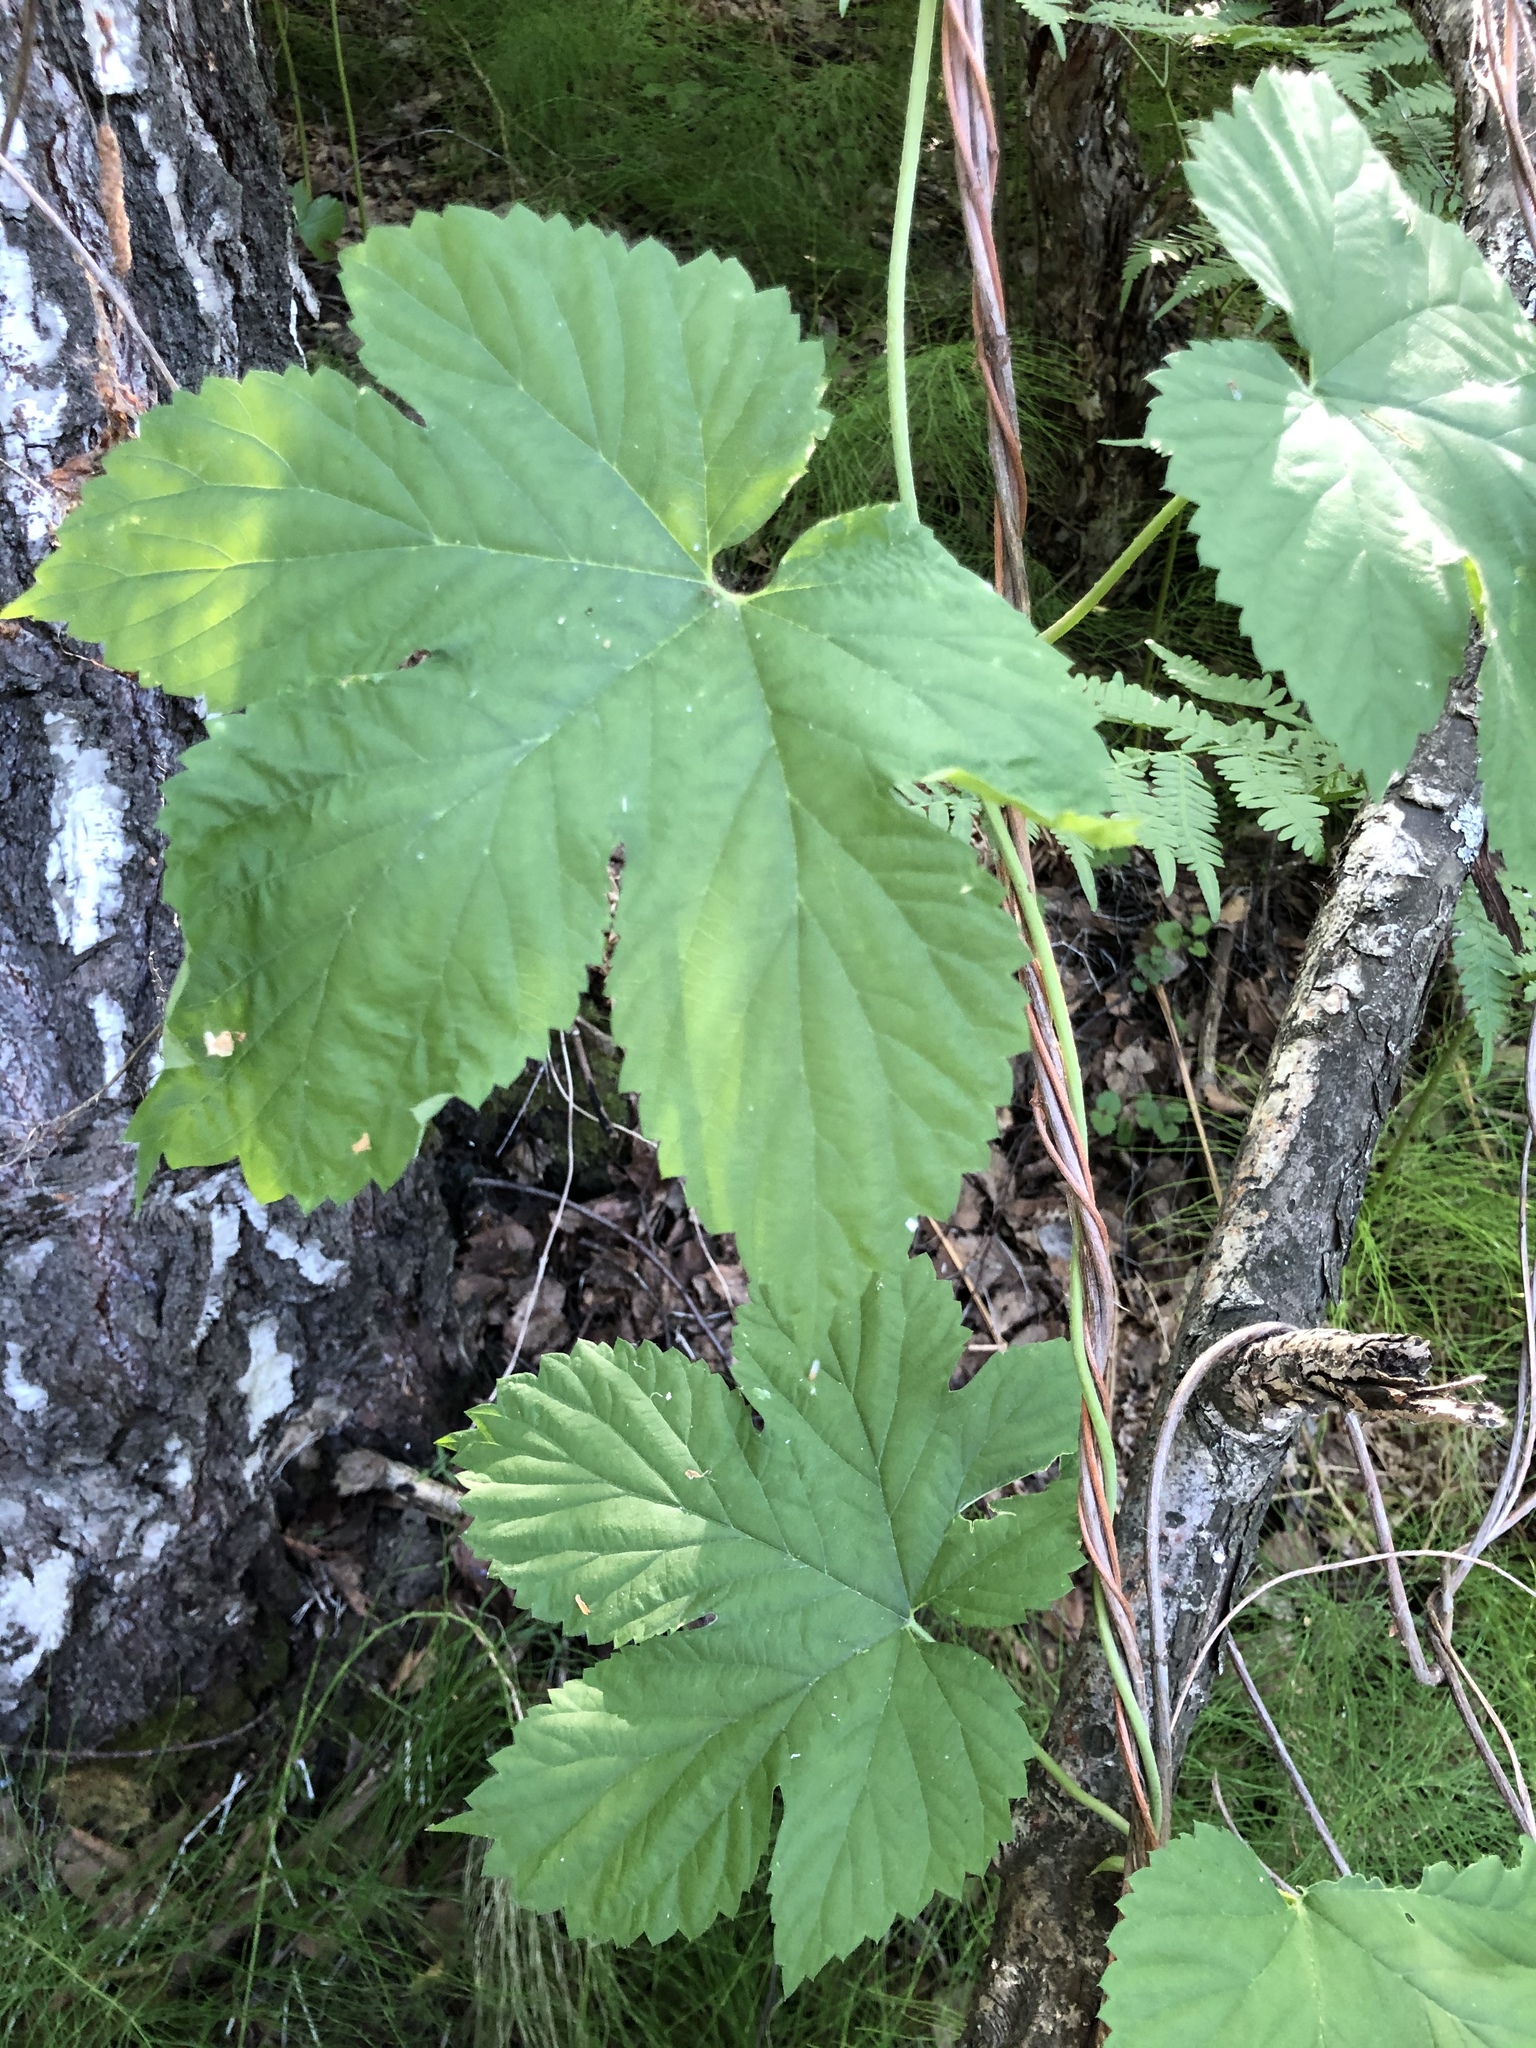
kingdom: Plantae
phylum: Tracheophyta
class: Magnoliopsida
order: Rosales
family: Cannabaceae
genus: Humulus
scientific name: Humulus lupulus
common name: Hop
